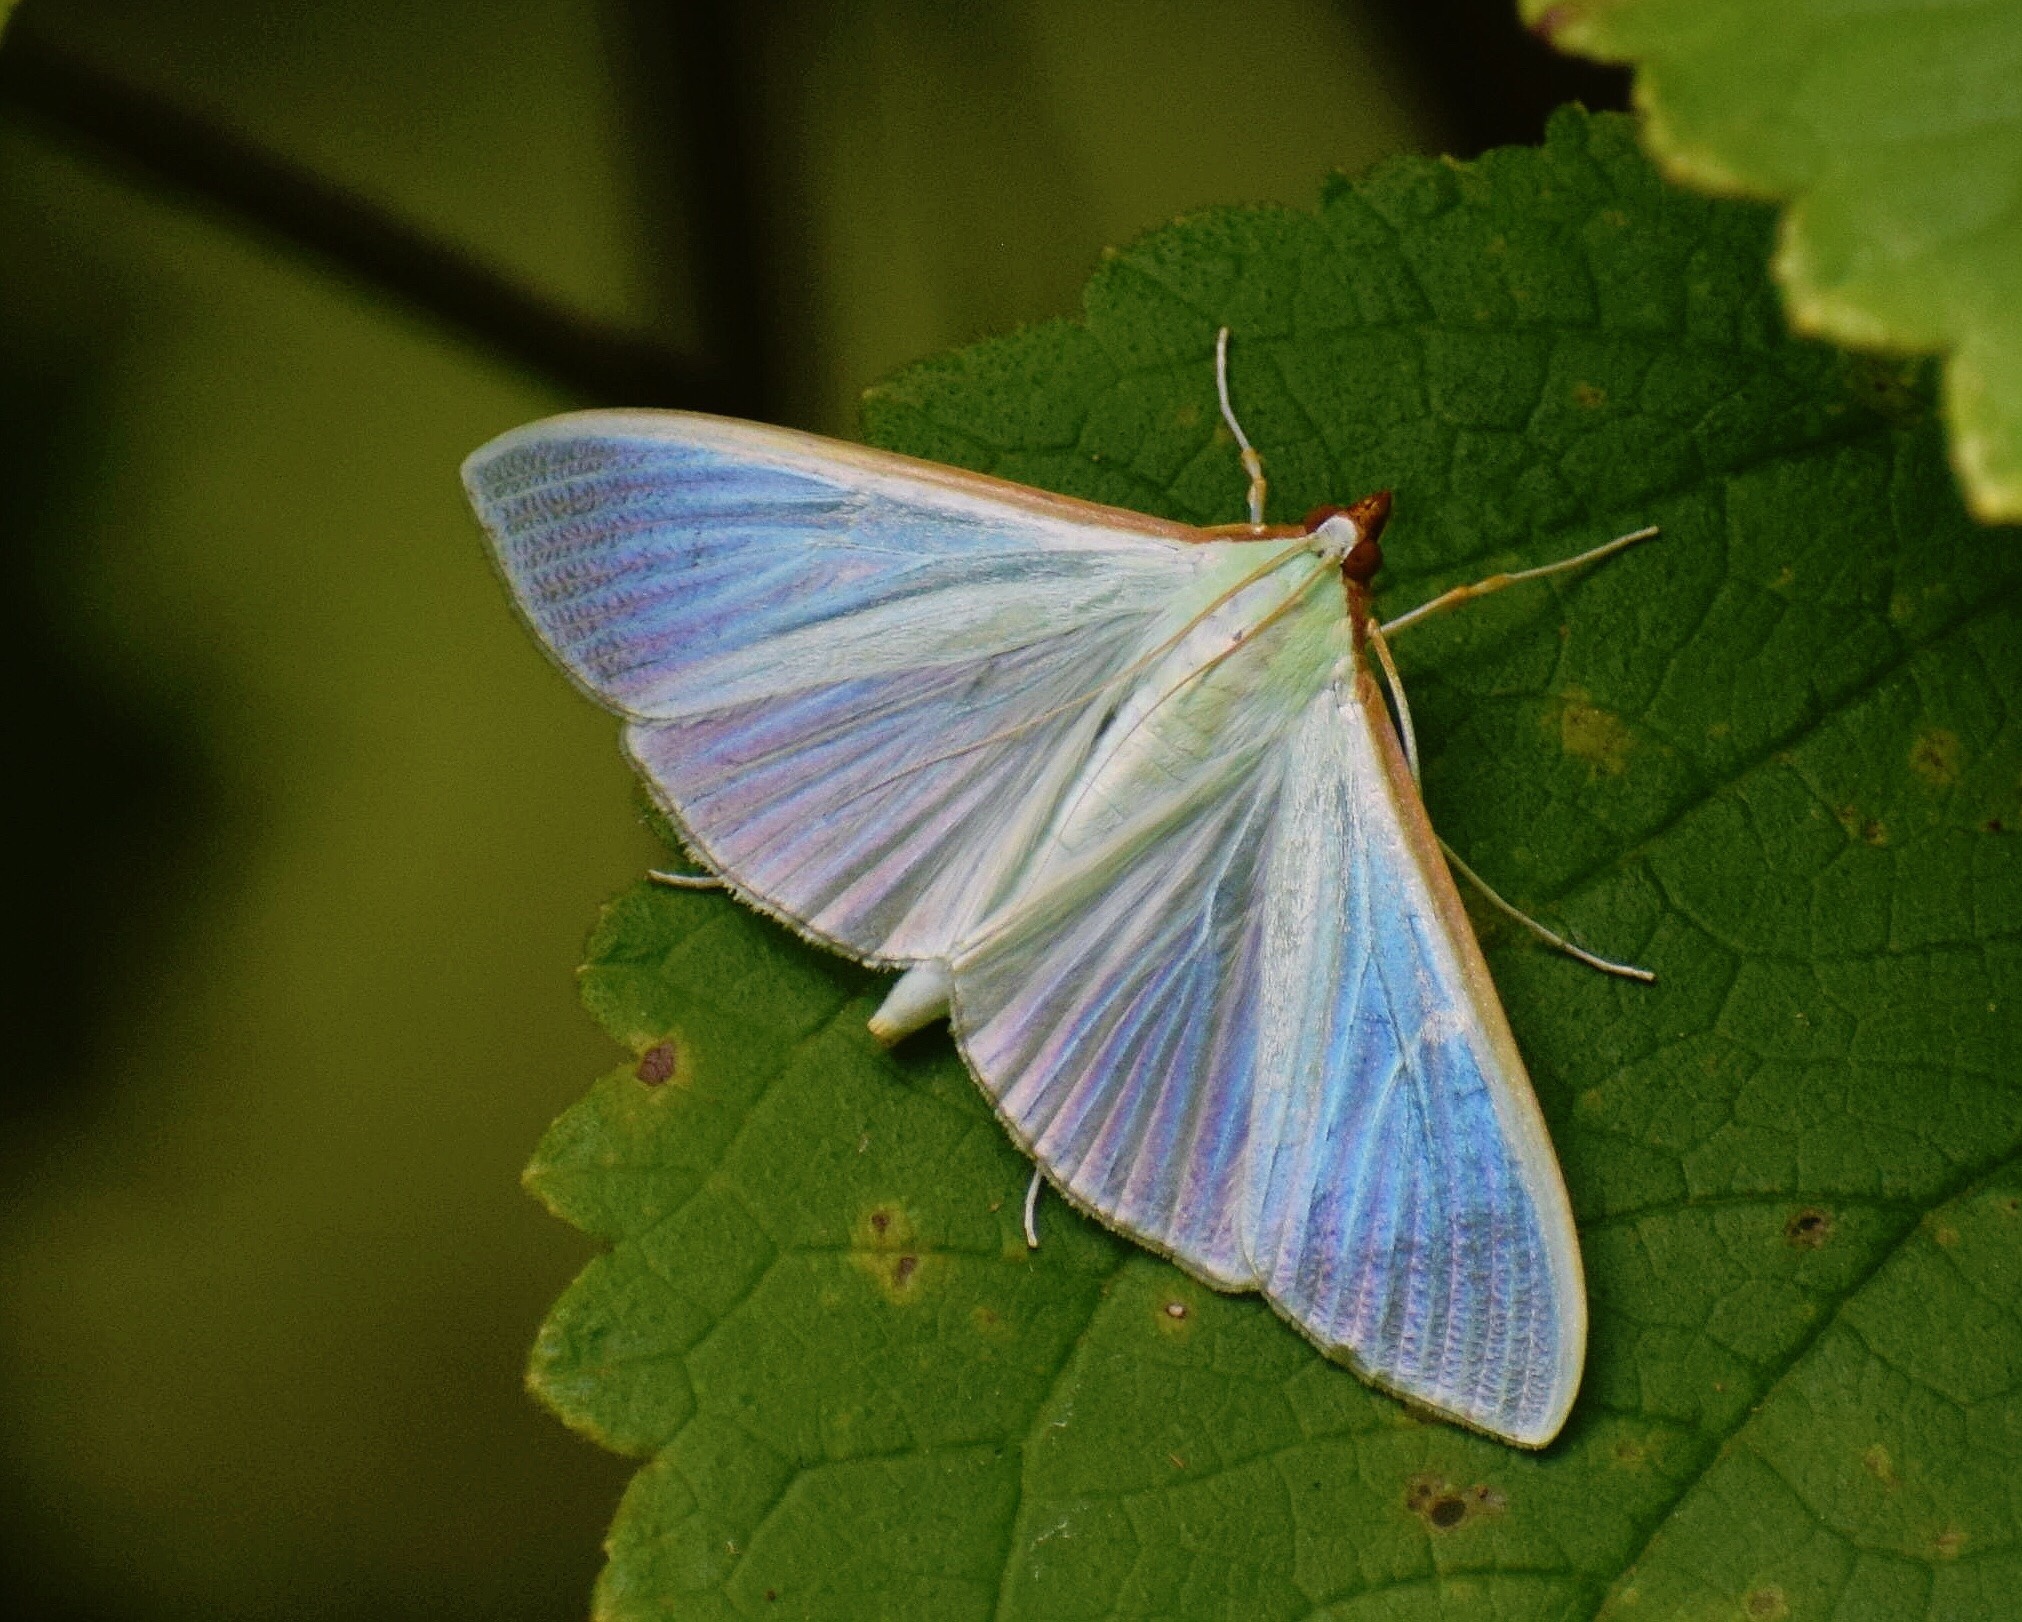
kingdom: Animalia
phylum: Arthropoda
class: Insecta
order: Lepidoptera
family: Crambidae
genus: Stemorrhages
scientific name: Stemorrhages sericea
